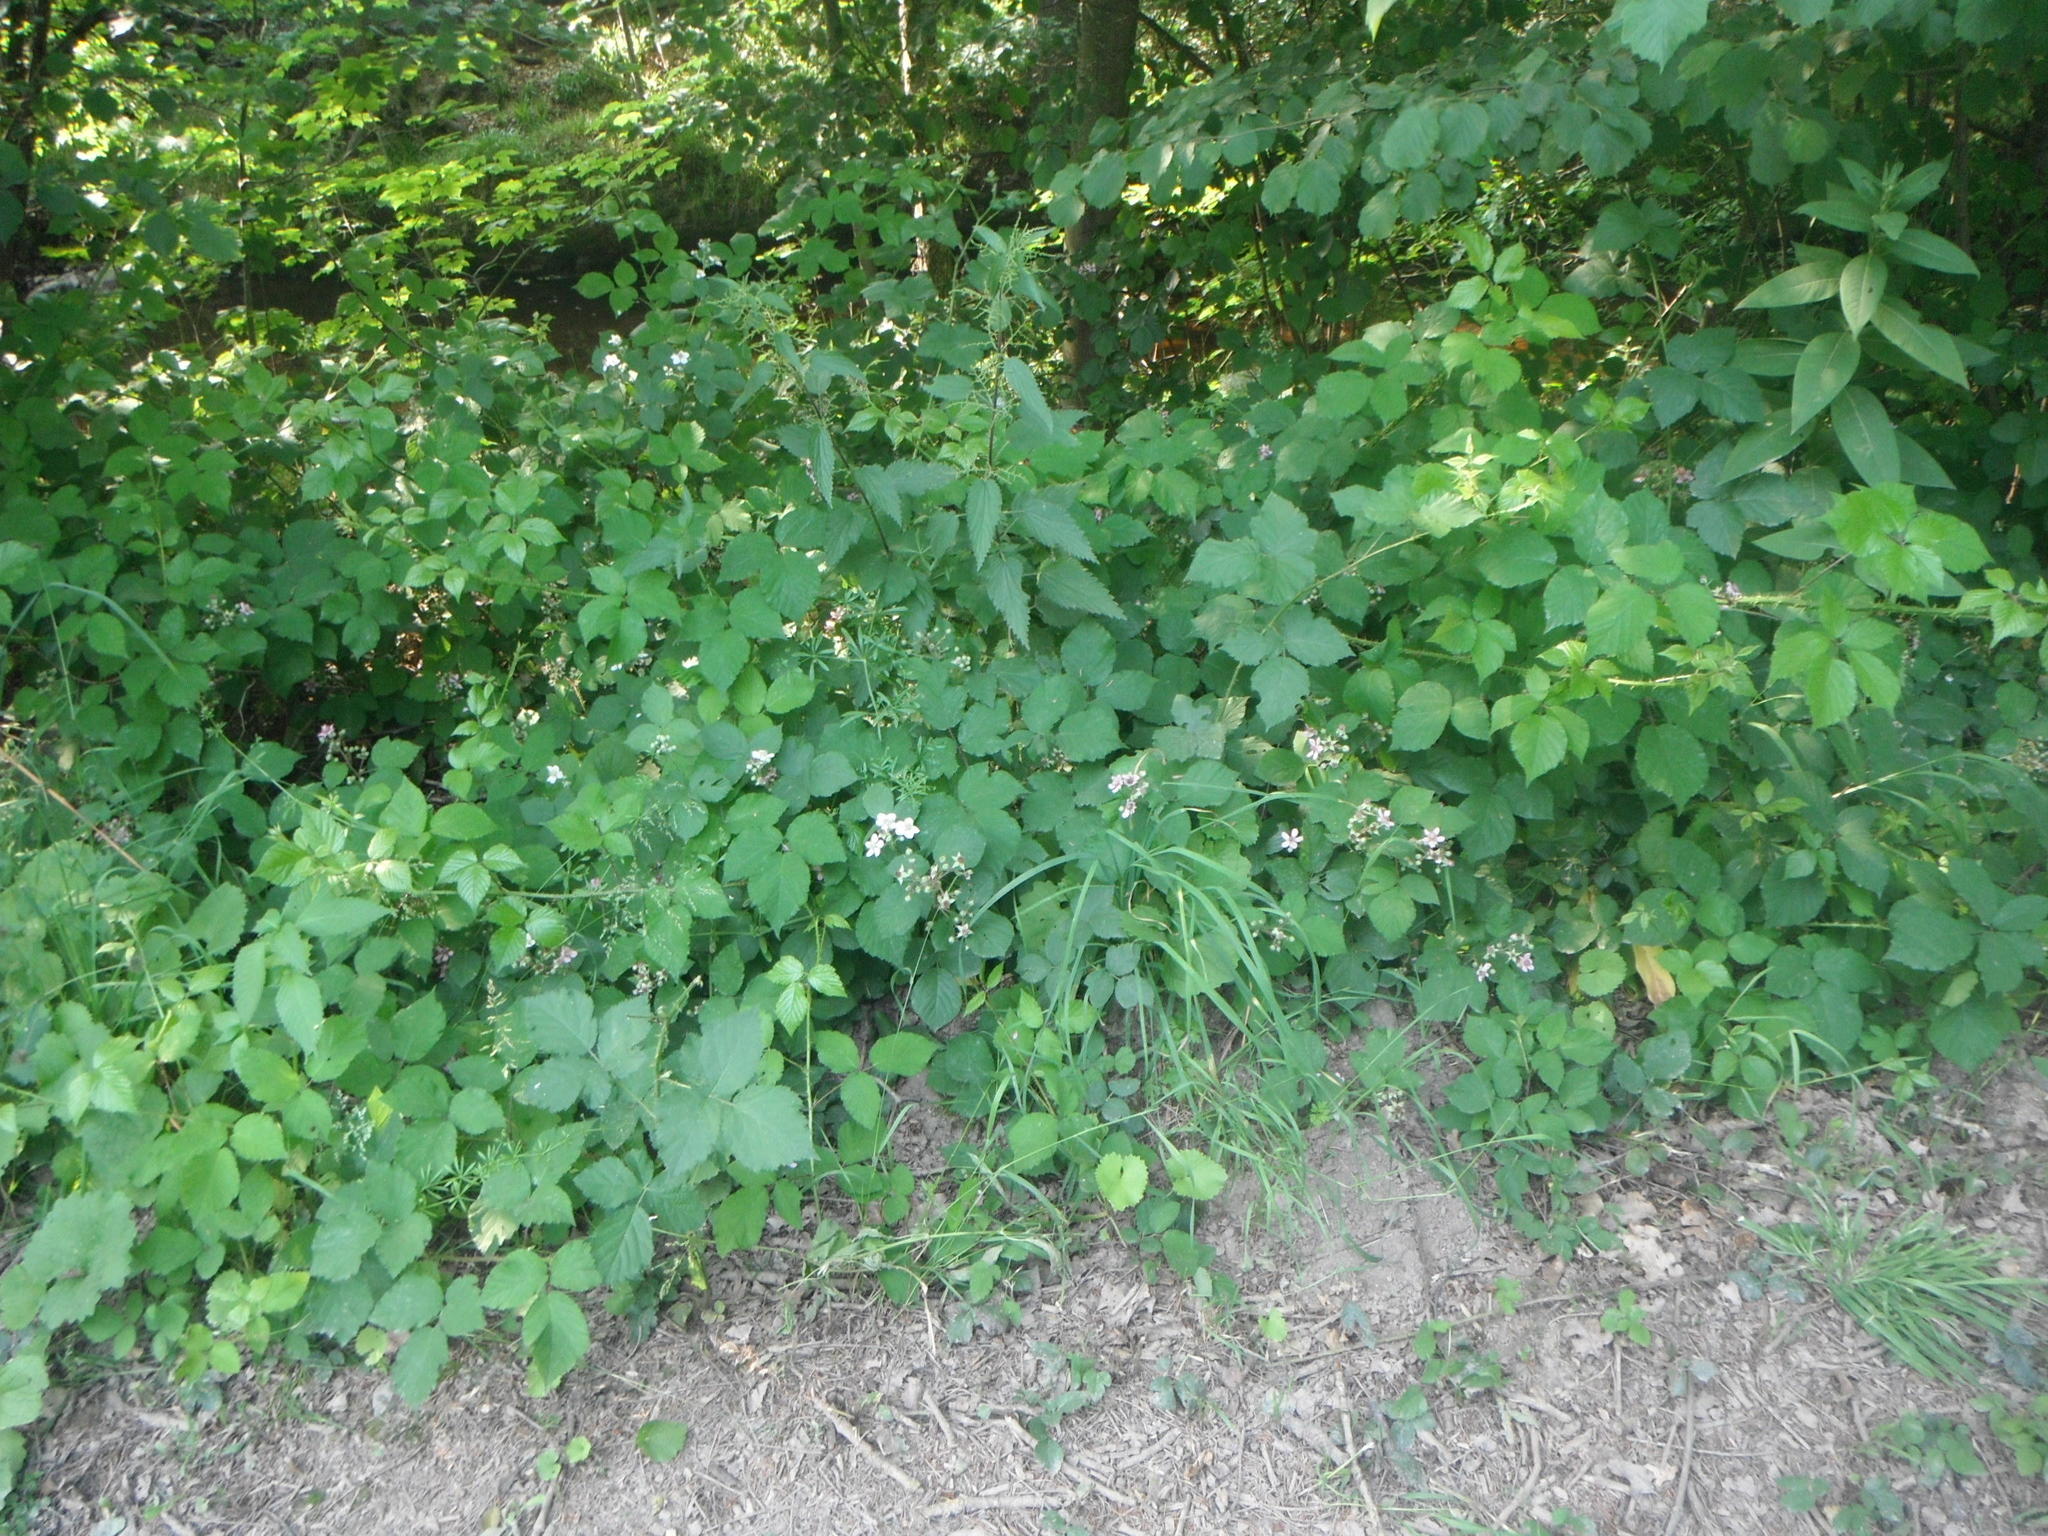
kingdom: Plantae
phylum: Tracheophyta
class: Magnoliopsida
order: Rosales
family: Rosaceae
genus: Rubus
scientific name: Rubus
